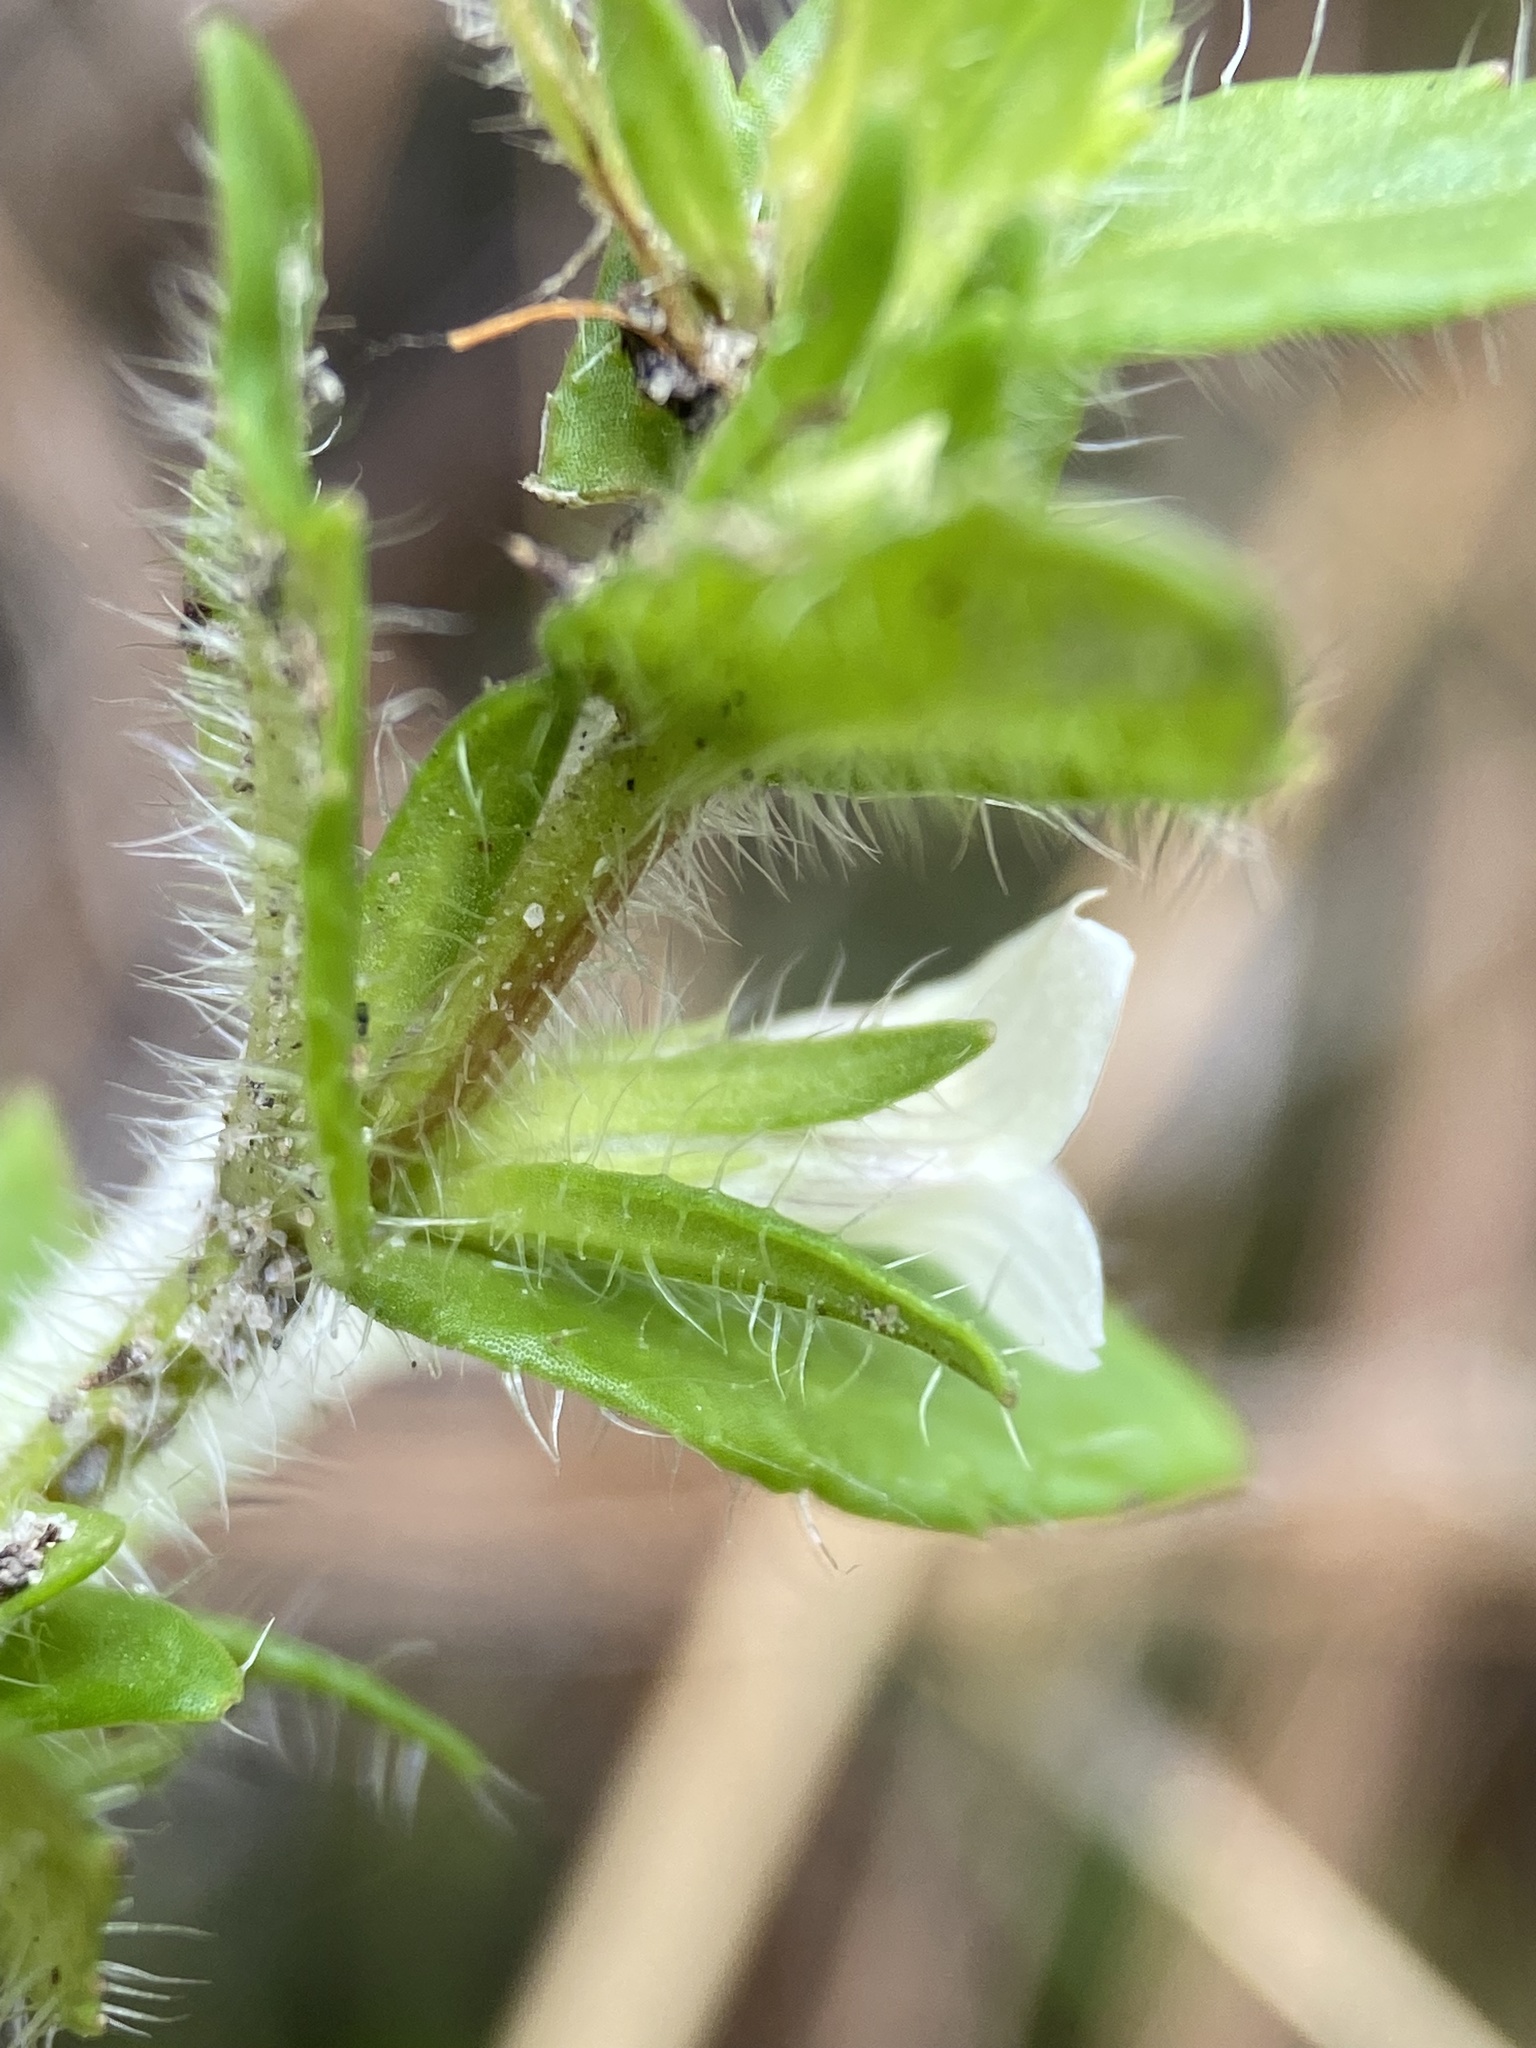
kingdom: Plantae
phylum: Tracheophyta
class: Magnoliopsida
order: Lamiales
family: Plantaginaceae
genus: Gratiola
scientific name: Gratiola pilosa
